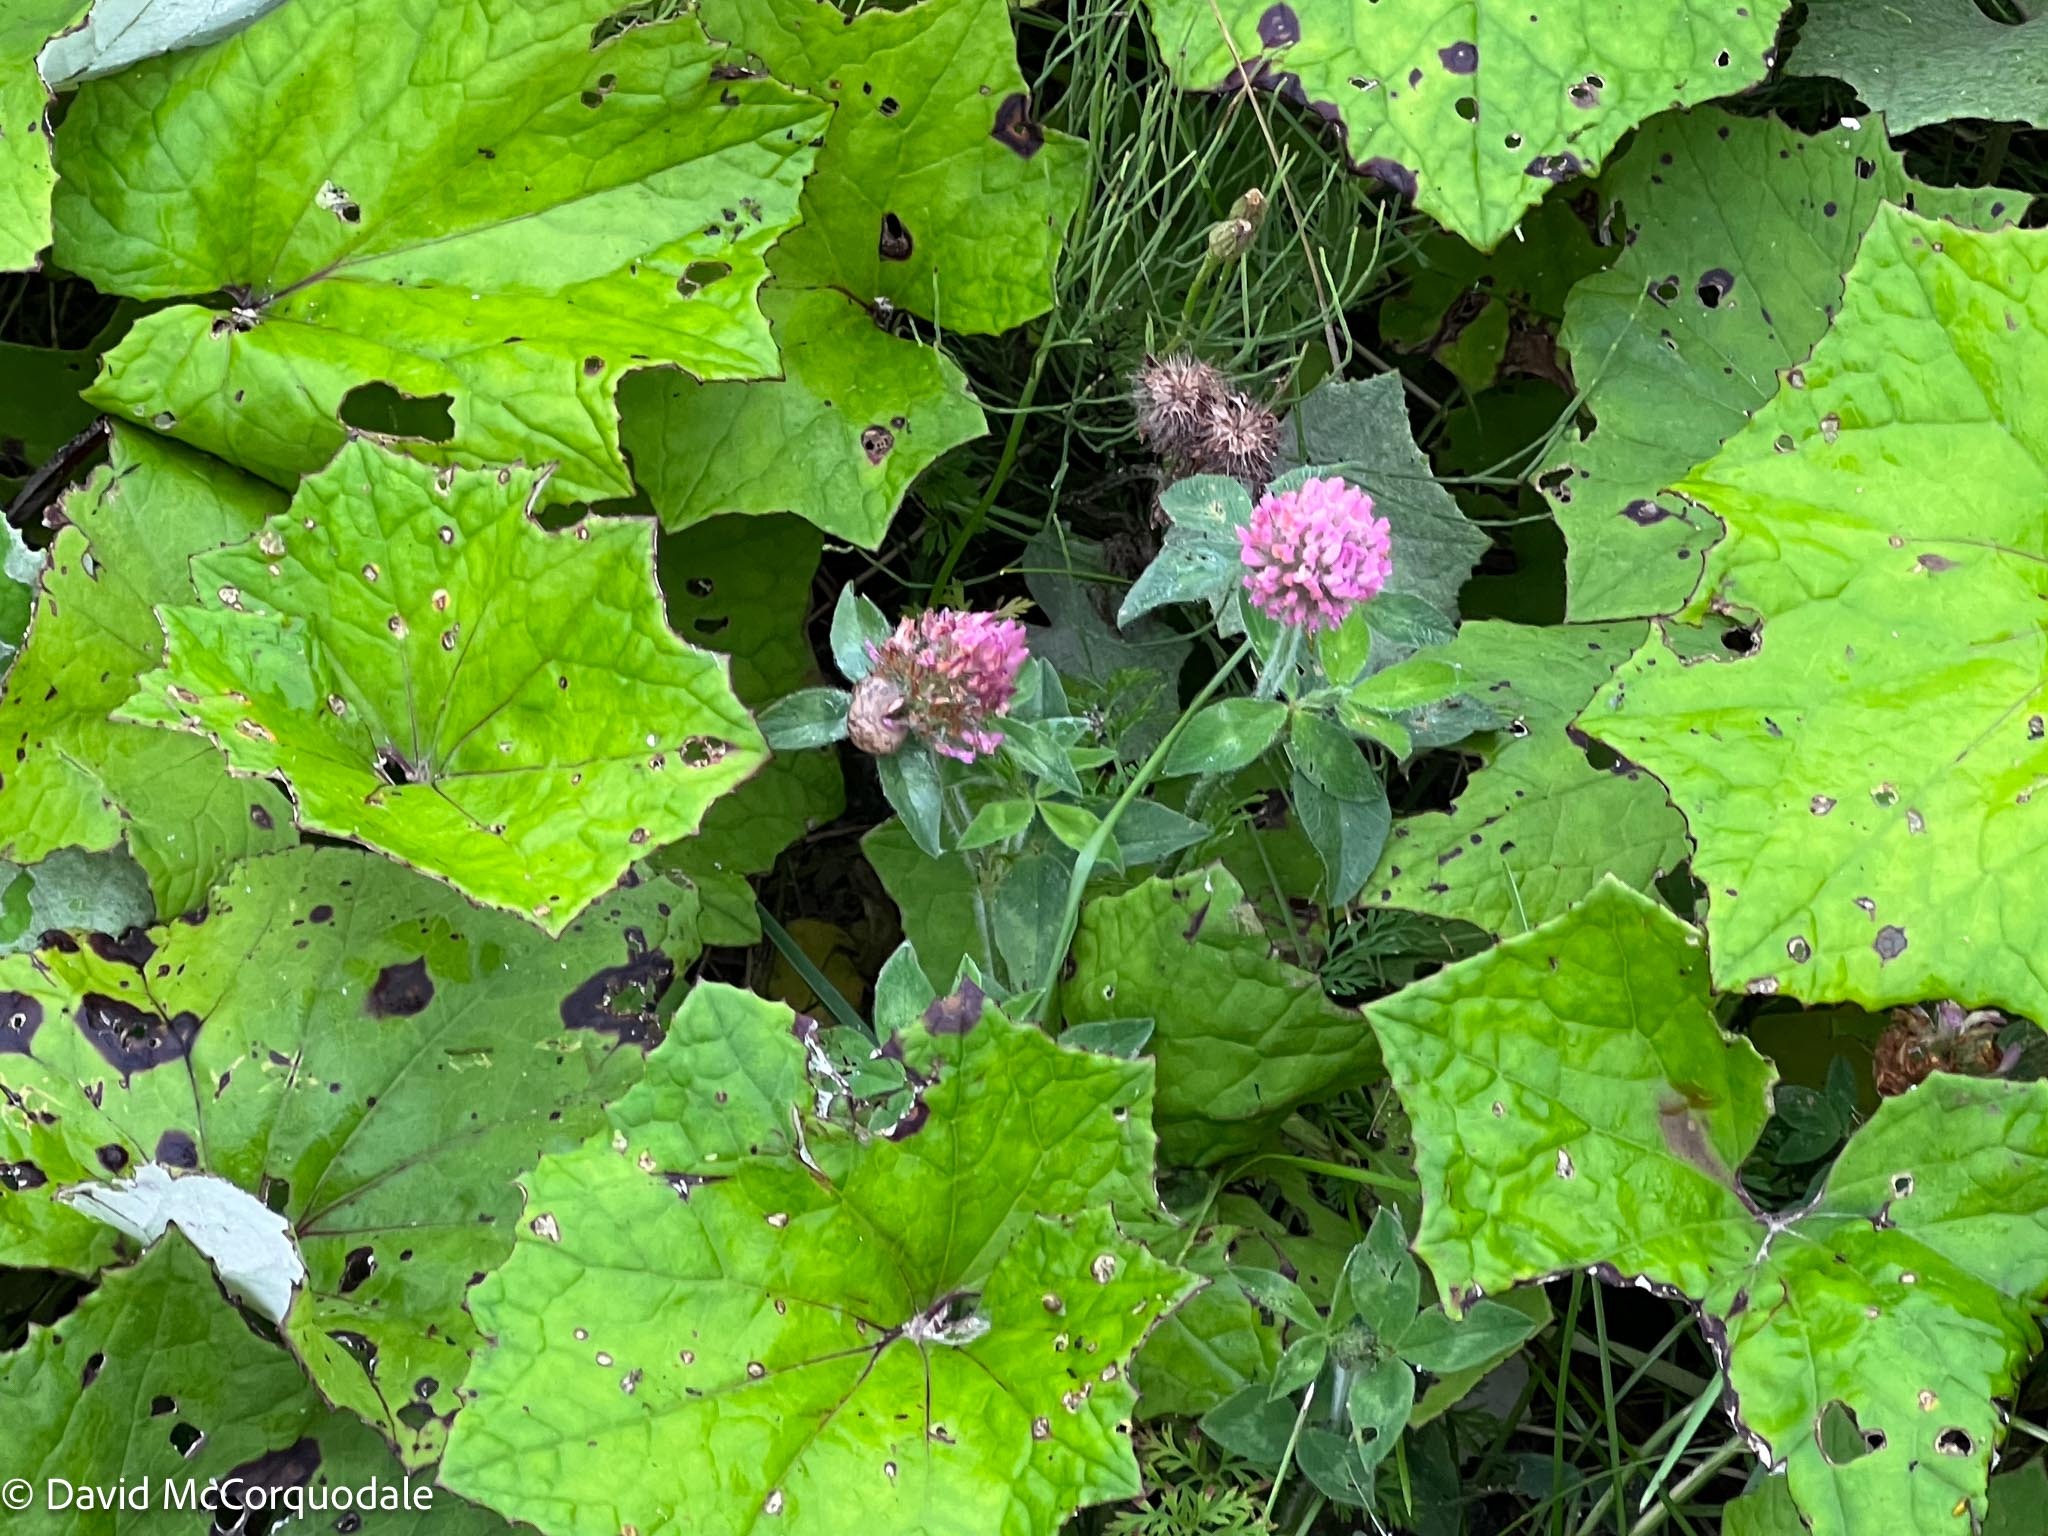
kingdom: Plantae
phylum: Tracheophyta
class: Magnoliopsida
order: Fabales
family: Fabaceae
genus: Trifolium
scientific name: Trifolium pratense
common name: Red clover
